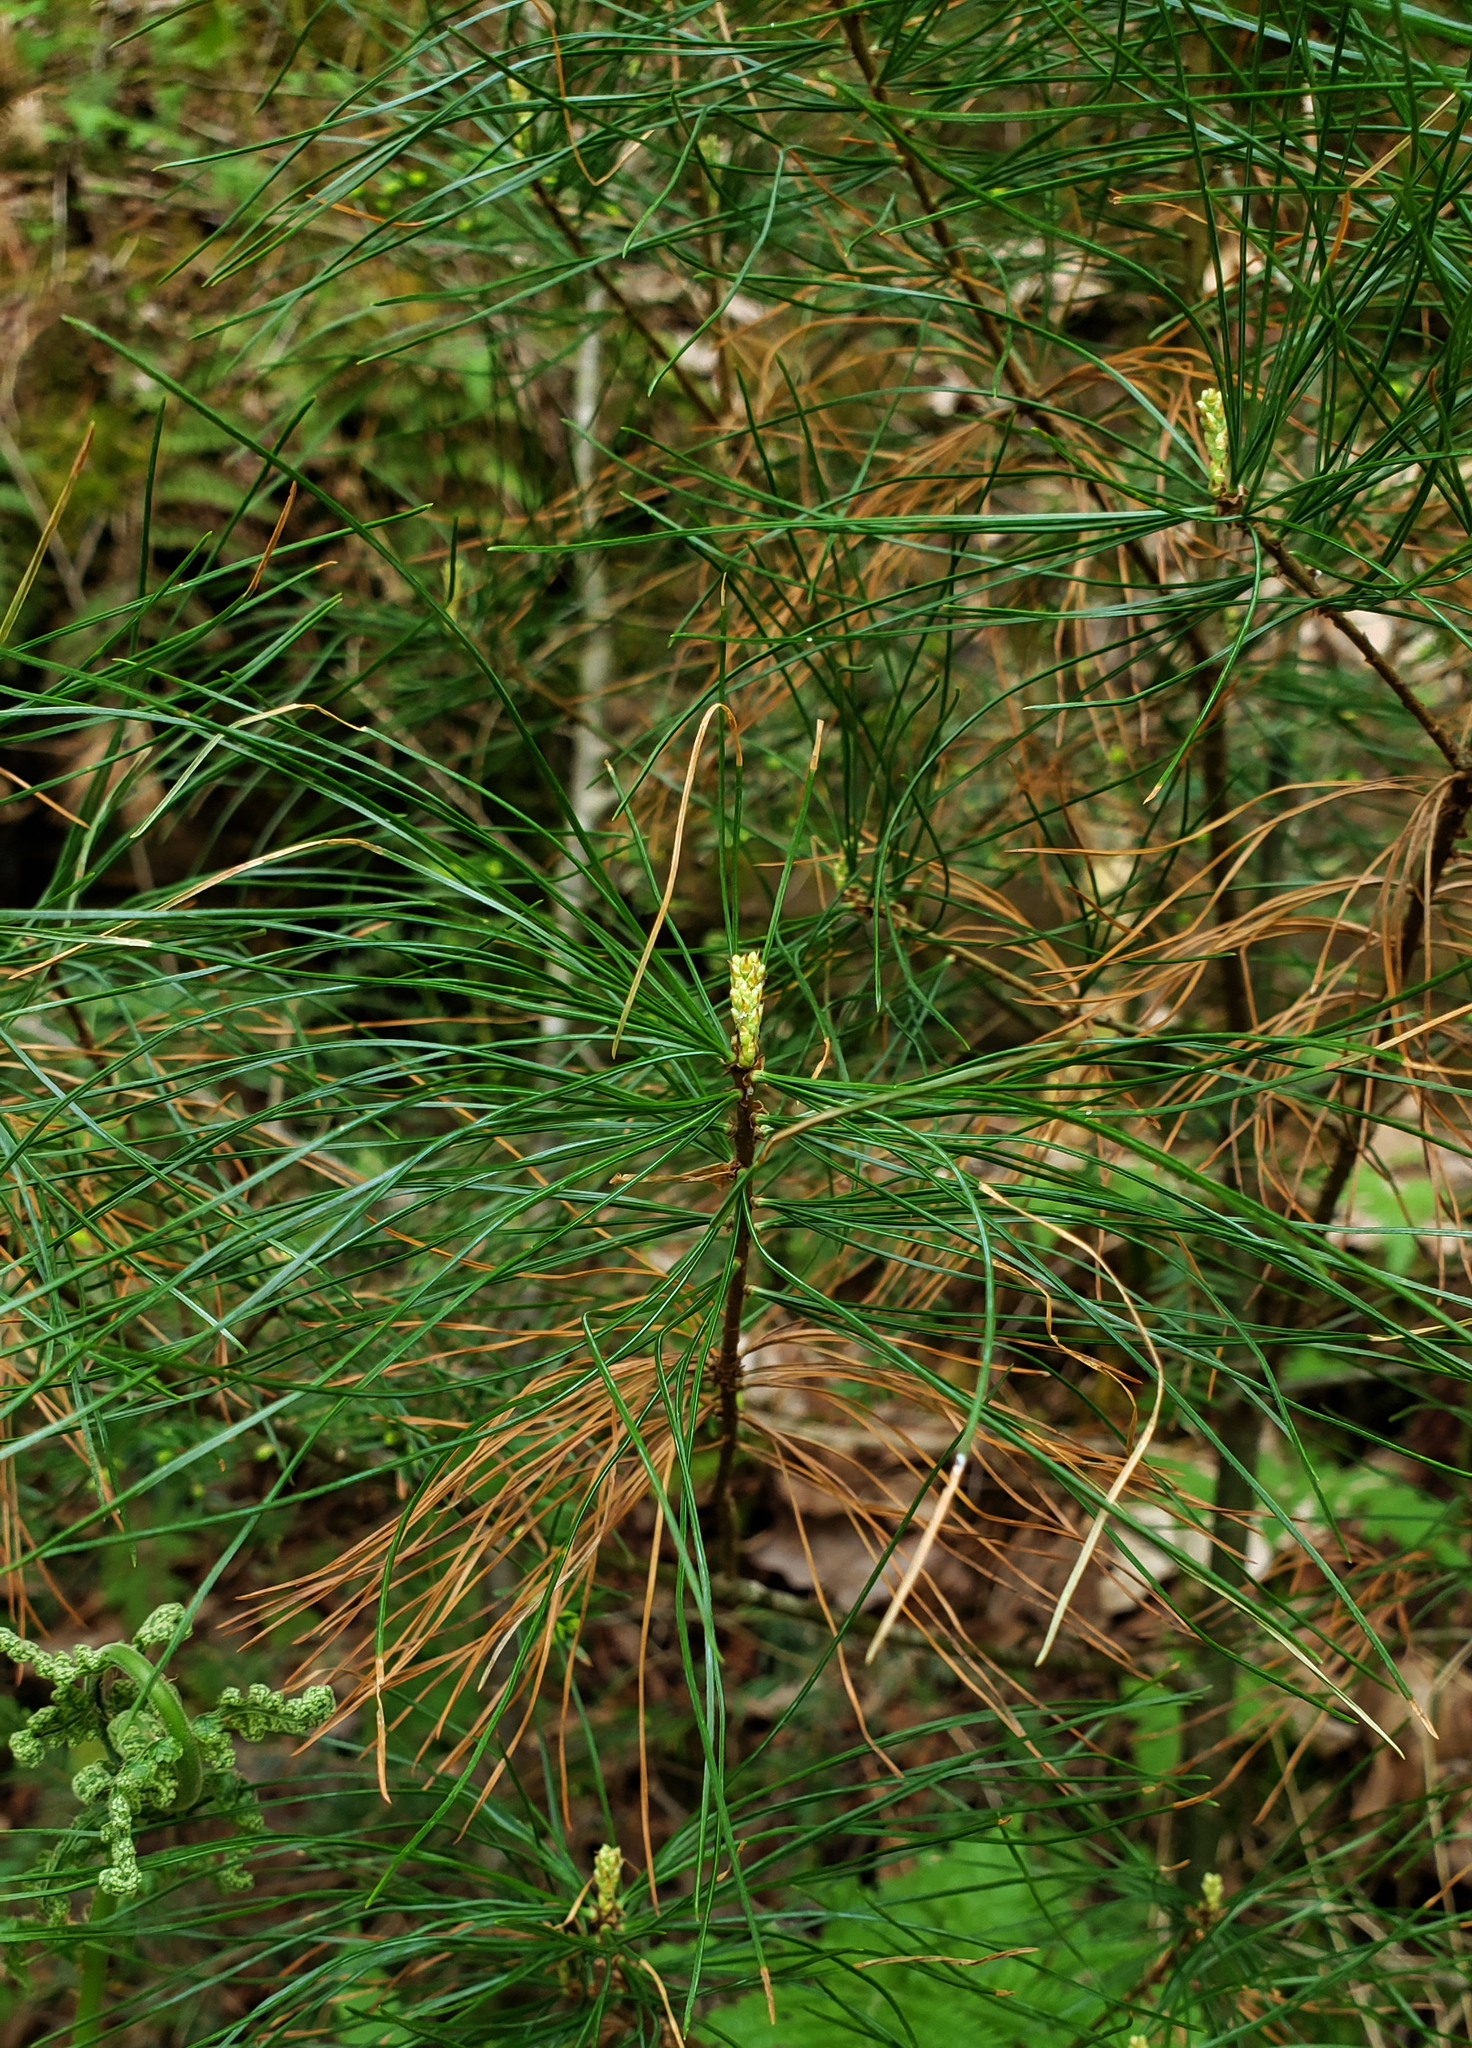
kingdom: Plantae
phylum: Tracheophyta
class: Pinopsida
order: Pinales
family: Pinaceae
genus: Pinus
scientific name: Pinus strobus
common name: Weymouth pine
